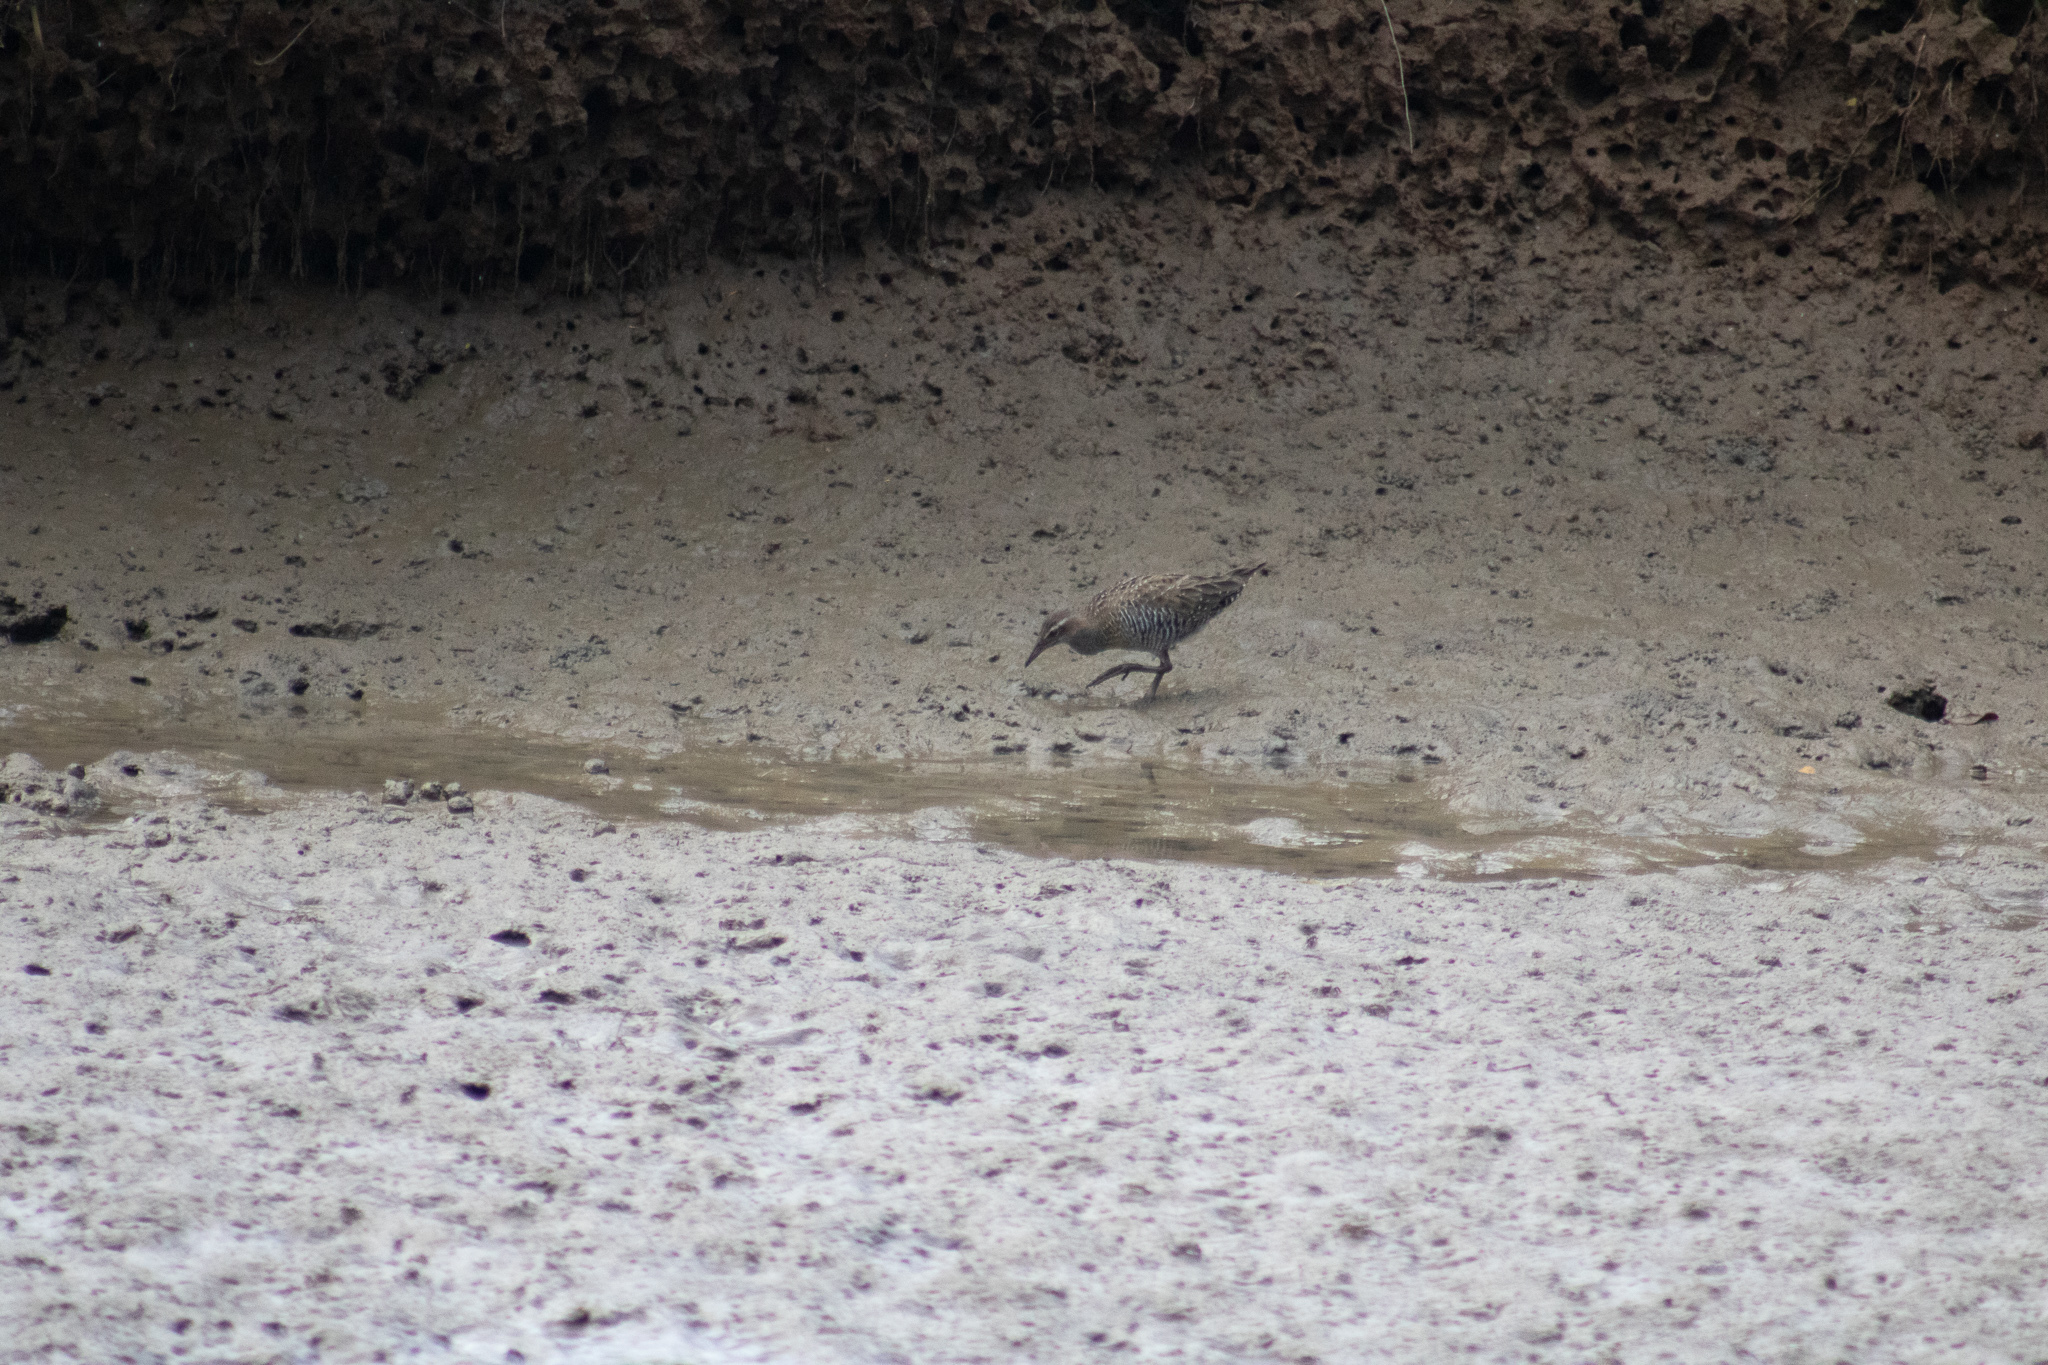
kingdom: Animalia
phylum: Chordata
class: Aves
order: Gruiformes
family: Rallidae
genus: Gallirallus
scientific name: Gallirallus philippensis
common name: Buff-banded rail
